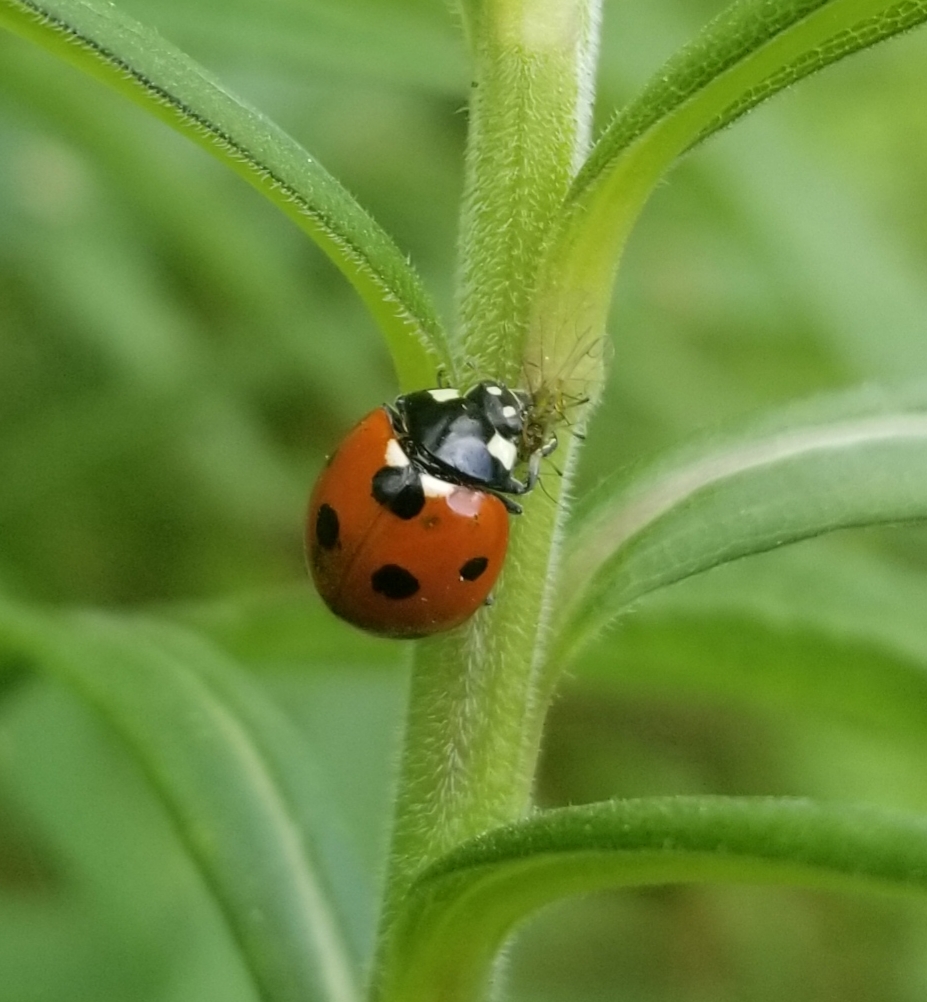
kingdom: Animalia
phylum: Arthropoda
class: Insecta
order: Coleoptera
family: Coccinellidae
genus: Coccinella
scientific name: Coccinella septempunctata
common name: Sevenspotted lady beetle
